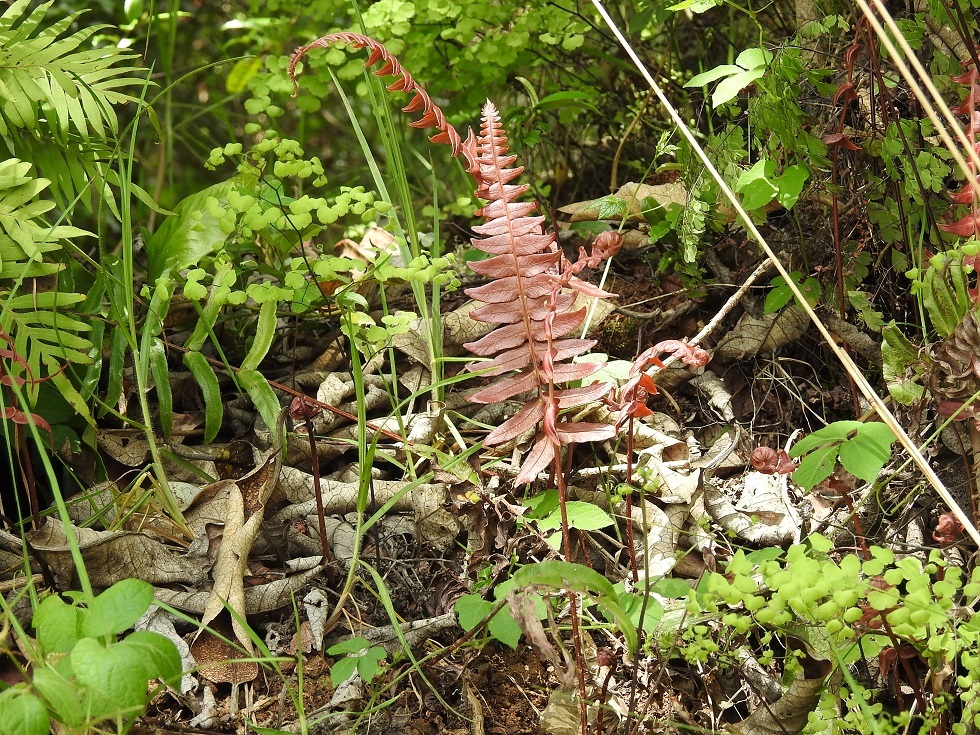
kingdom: Plantae
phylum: Tracheophyta
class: Polypodiopsida
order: Polypodiales
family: Blechnaceae
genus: Blechnum
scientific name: Blechnum appendiculatum
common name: Palm fern
